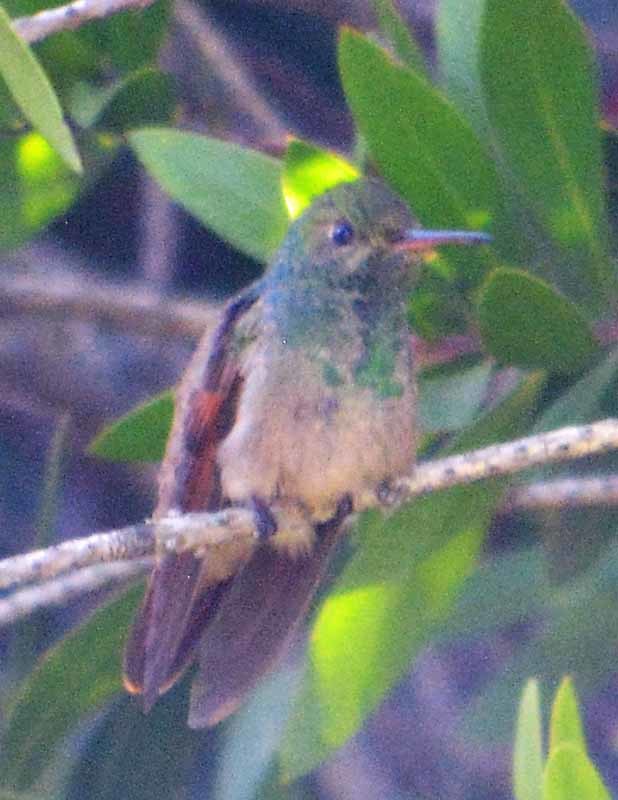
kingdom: Animalia
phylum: Chordata
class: Aves
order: Apodiformes
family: Trochilidae
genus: Saucerottia
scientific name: Saucerottia beryllina
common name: Berylline hummingbird
